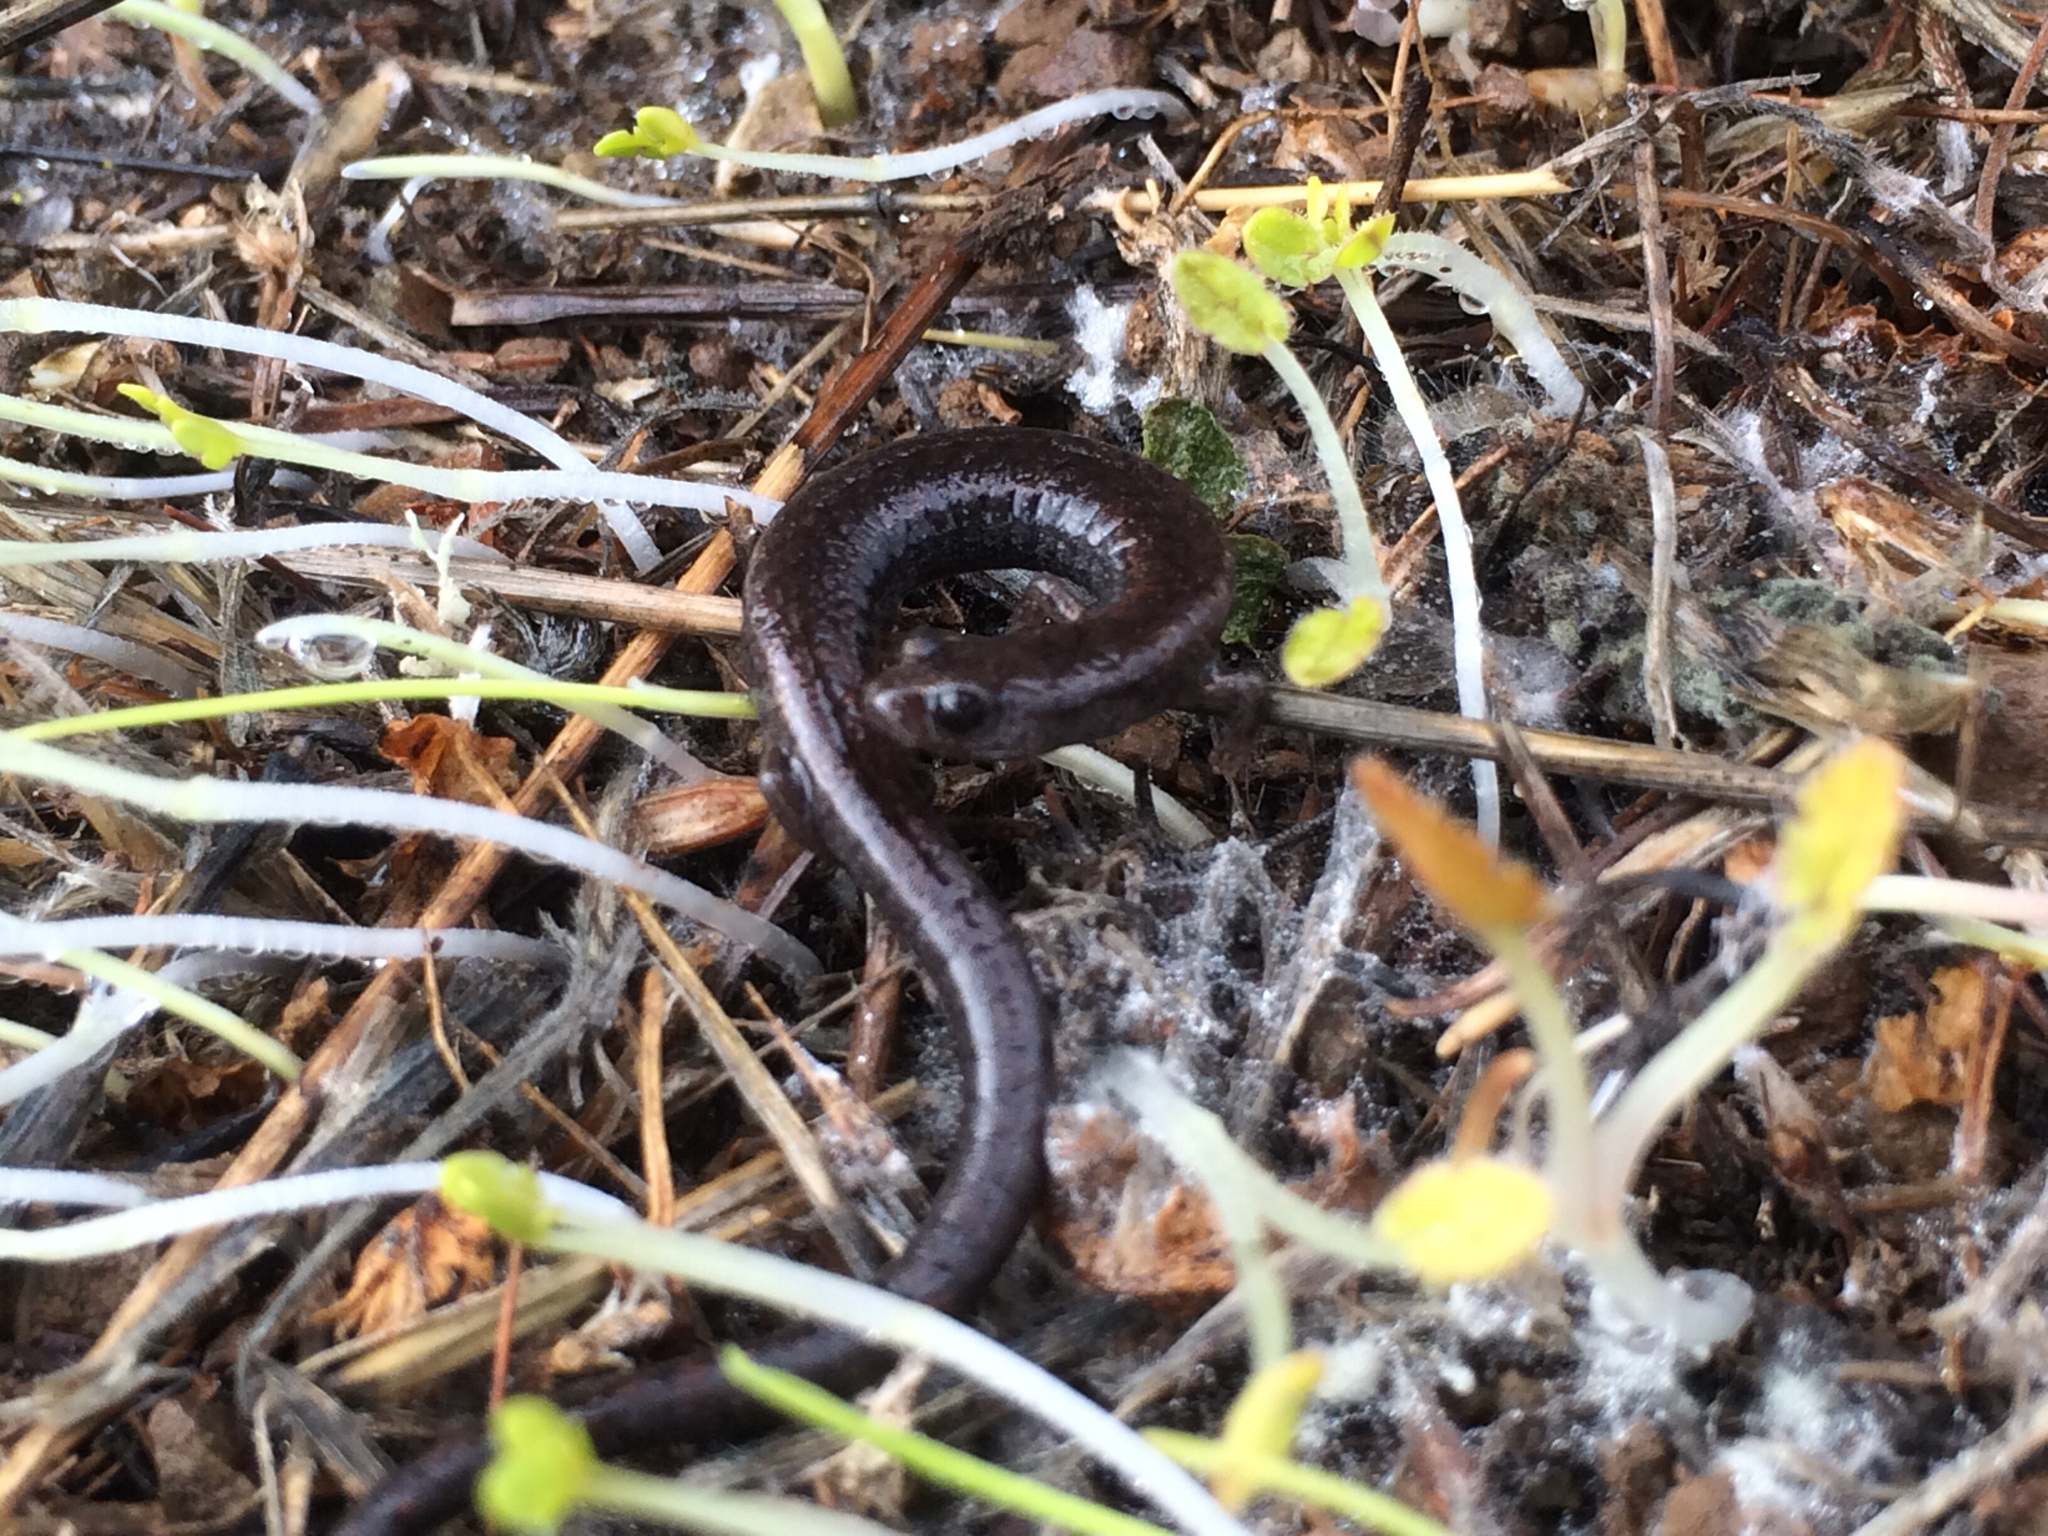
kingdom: Animalia
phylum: Chordata
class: Amphibia
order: Caudata
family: Plethodontidae
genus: Batrachoseps
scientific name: Batrachoseps attenuatus
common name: California slender salamander
